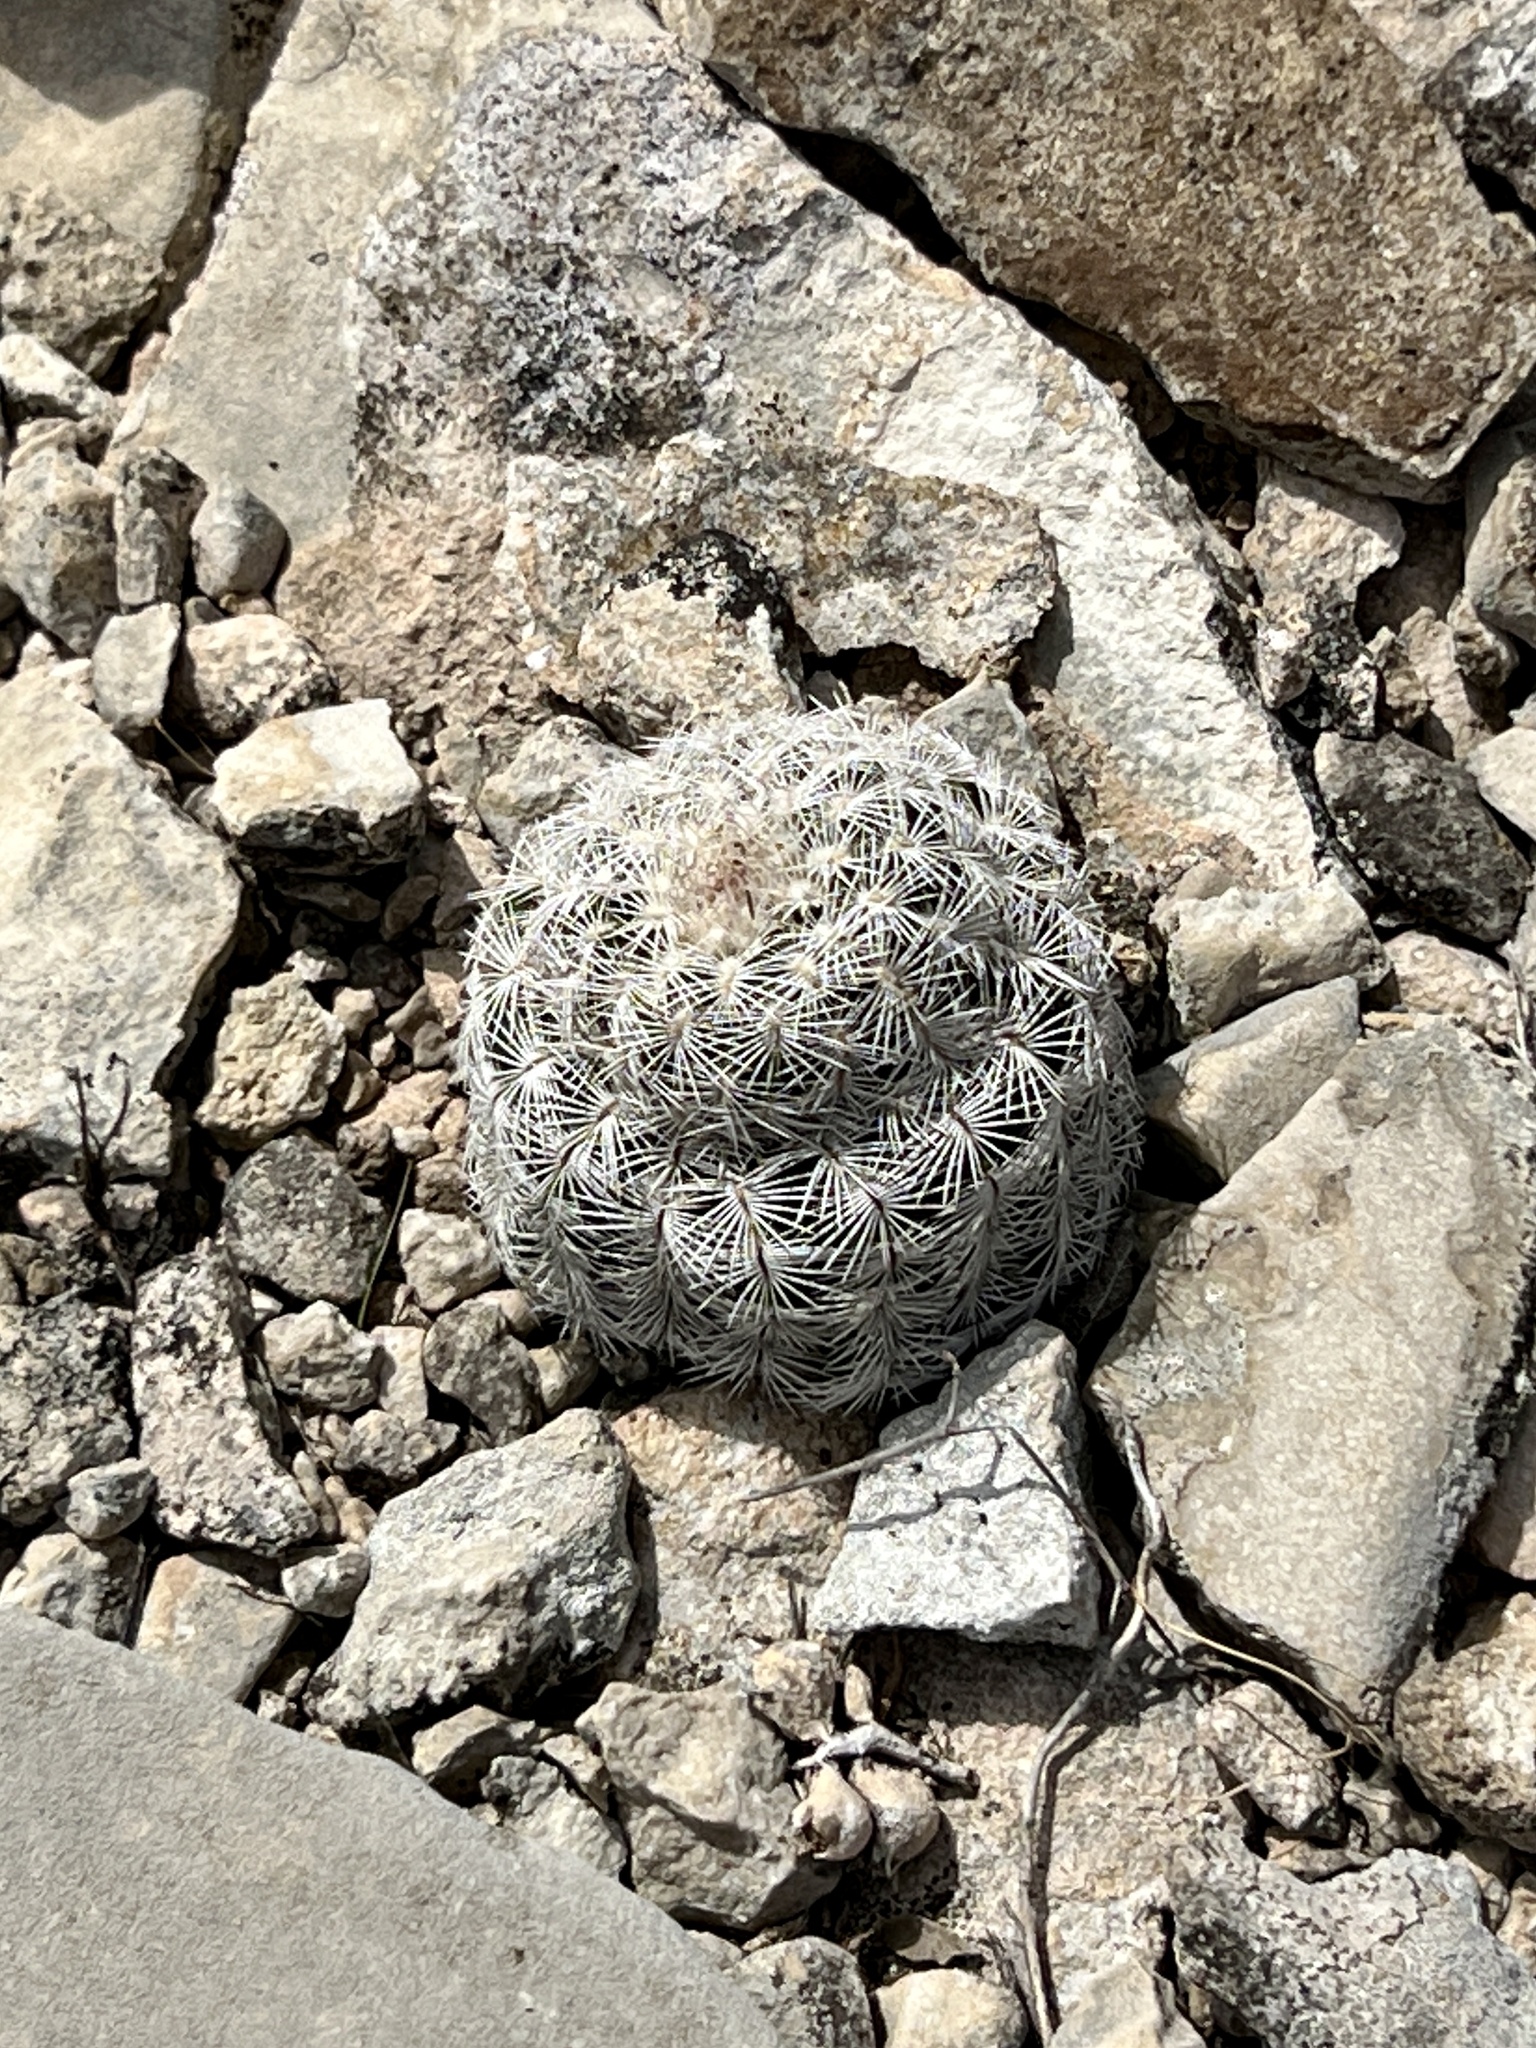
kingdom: Plantae
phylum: Tracheophyta
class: Magnoliopsida
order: Caryophyllales
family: Cactaceae
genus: Echinocereus
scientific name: Echinocereus reichenbachii
